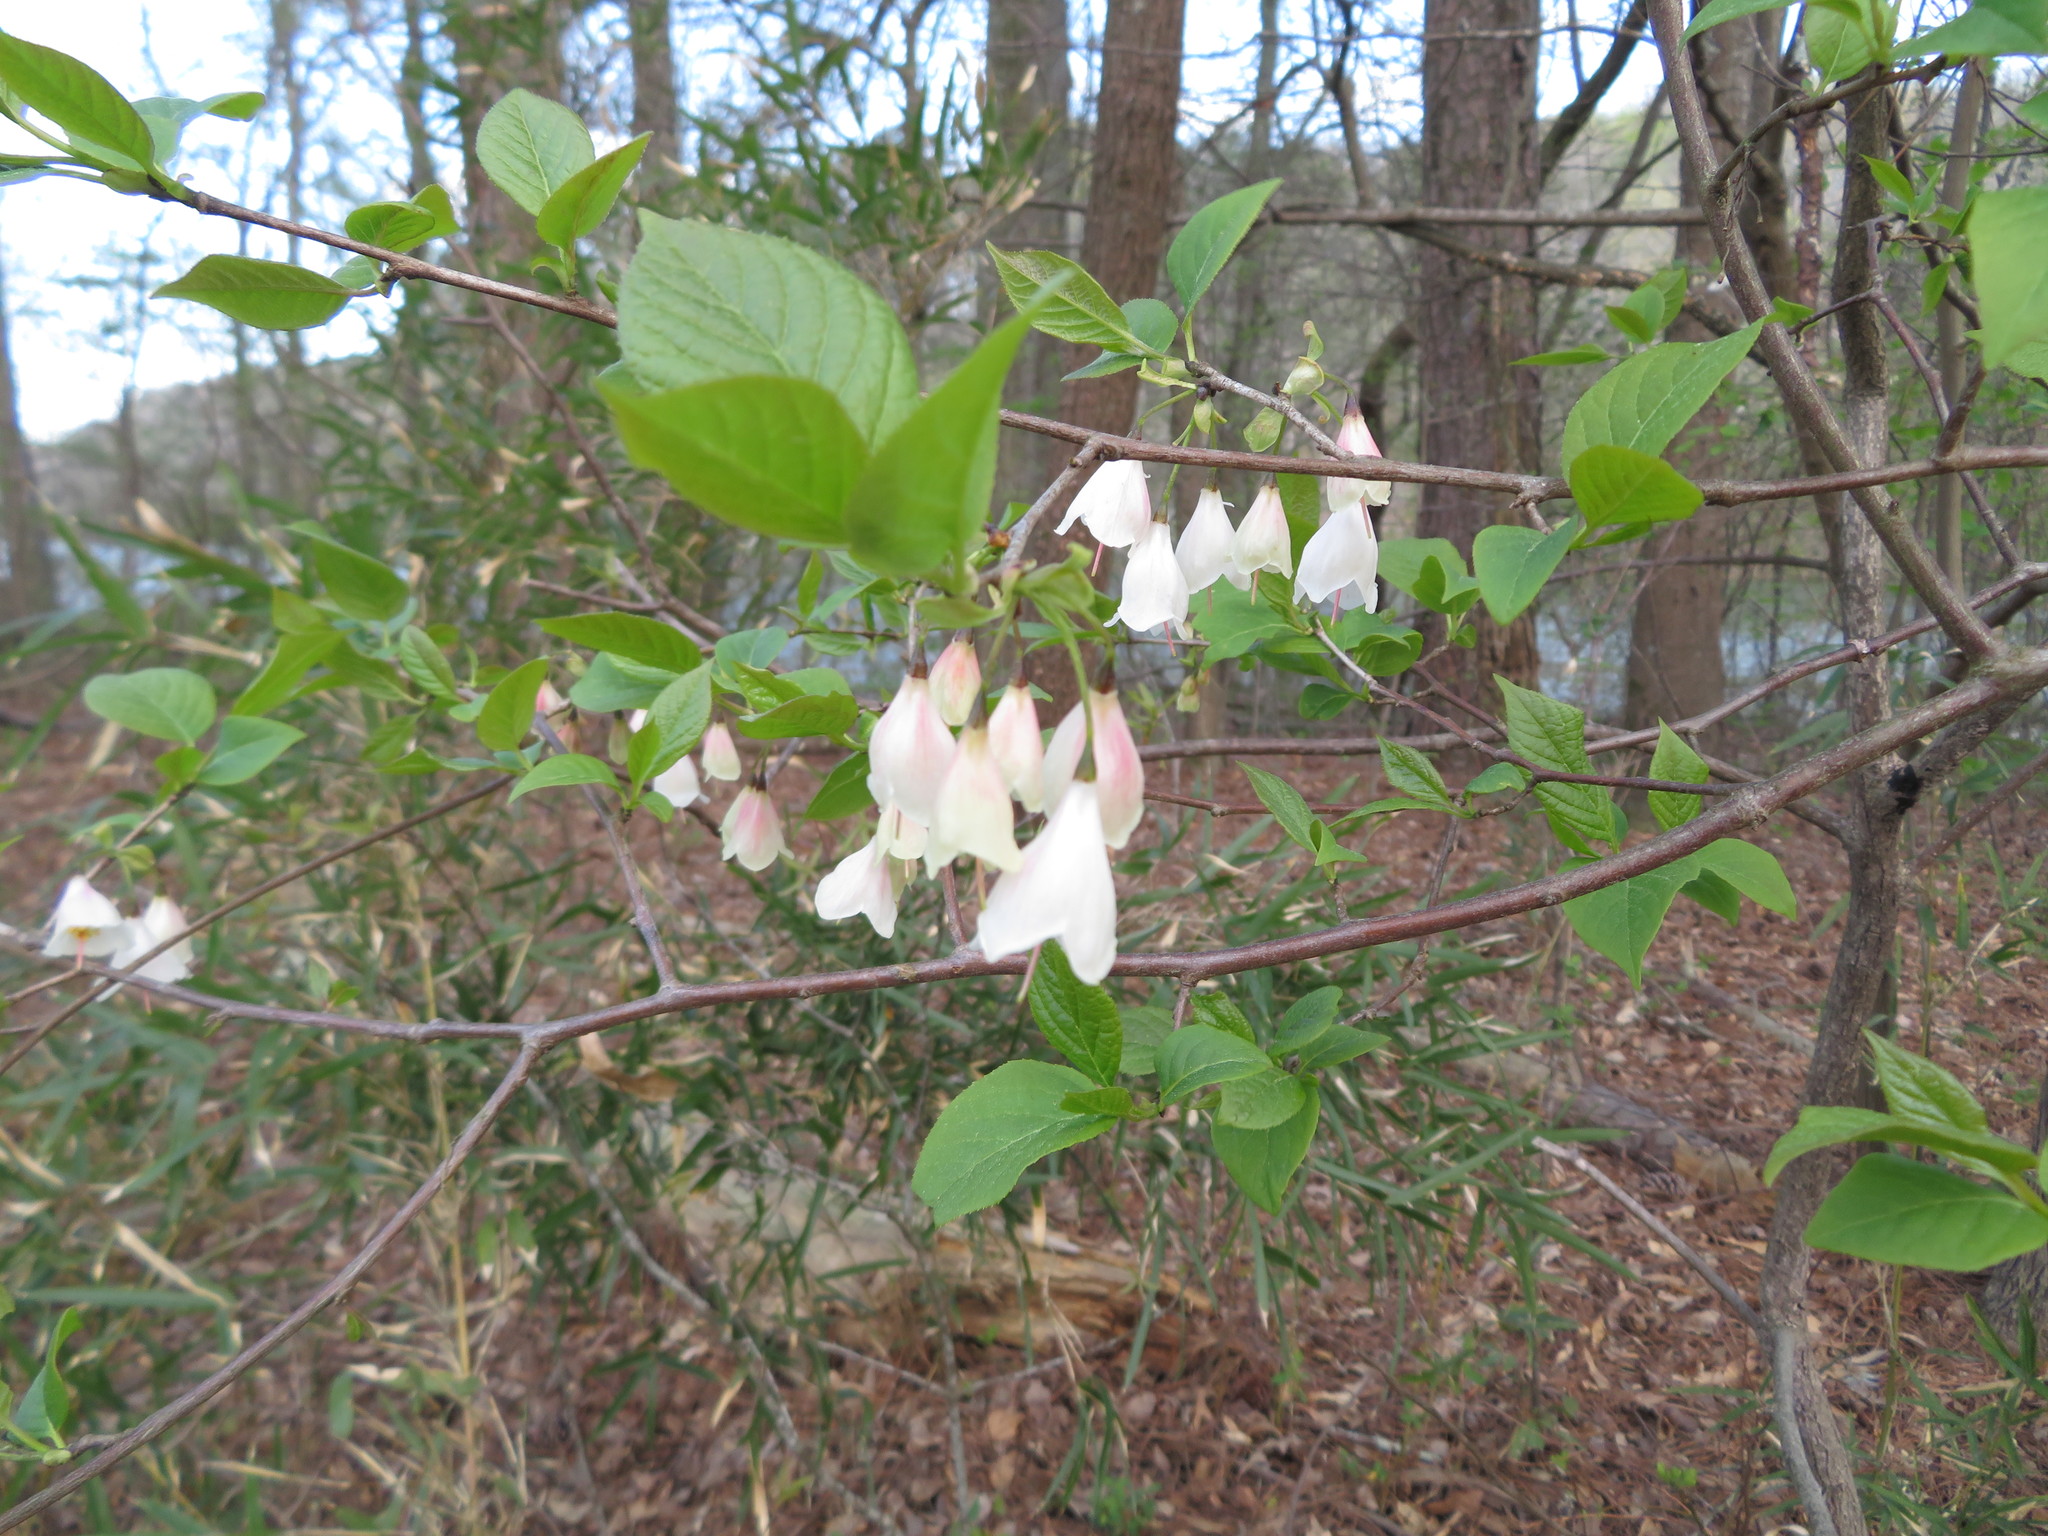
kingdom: Plantae
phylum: Tracheophyta
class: Magnoliopsida
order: Ericales
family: Styracaceae
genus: Halesia
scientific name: Halesia carolina
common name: Carolina silverbell
